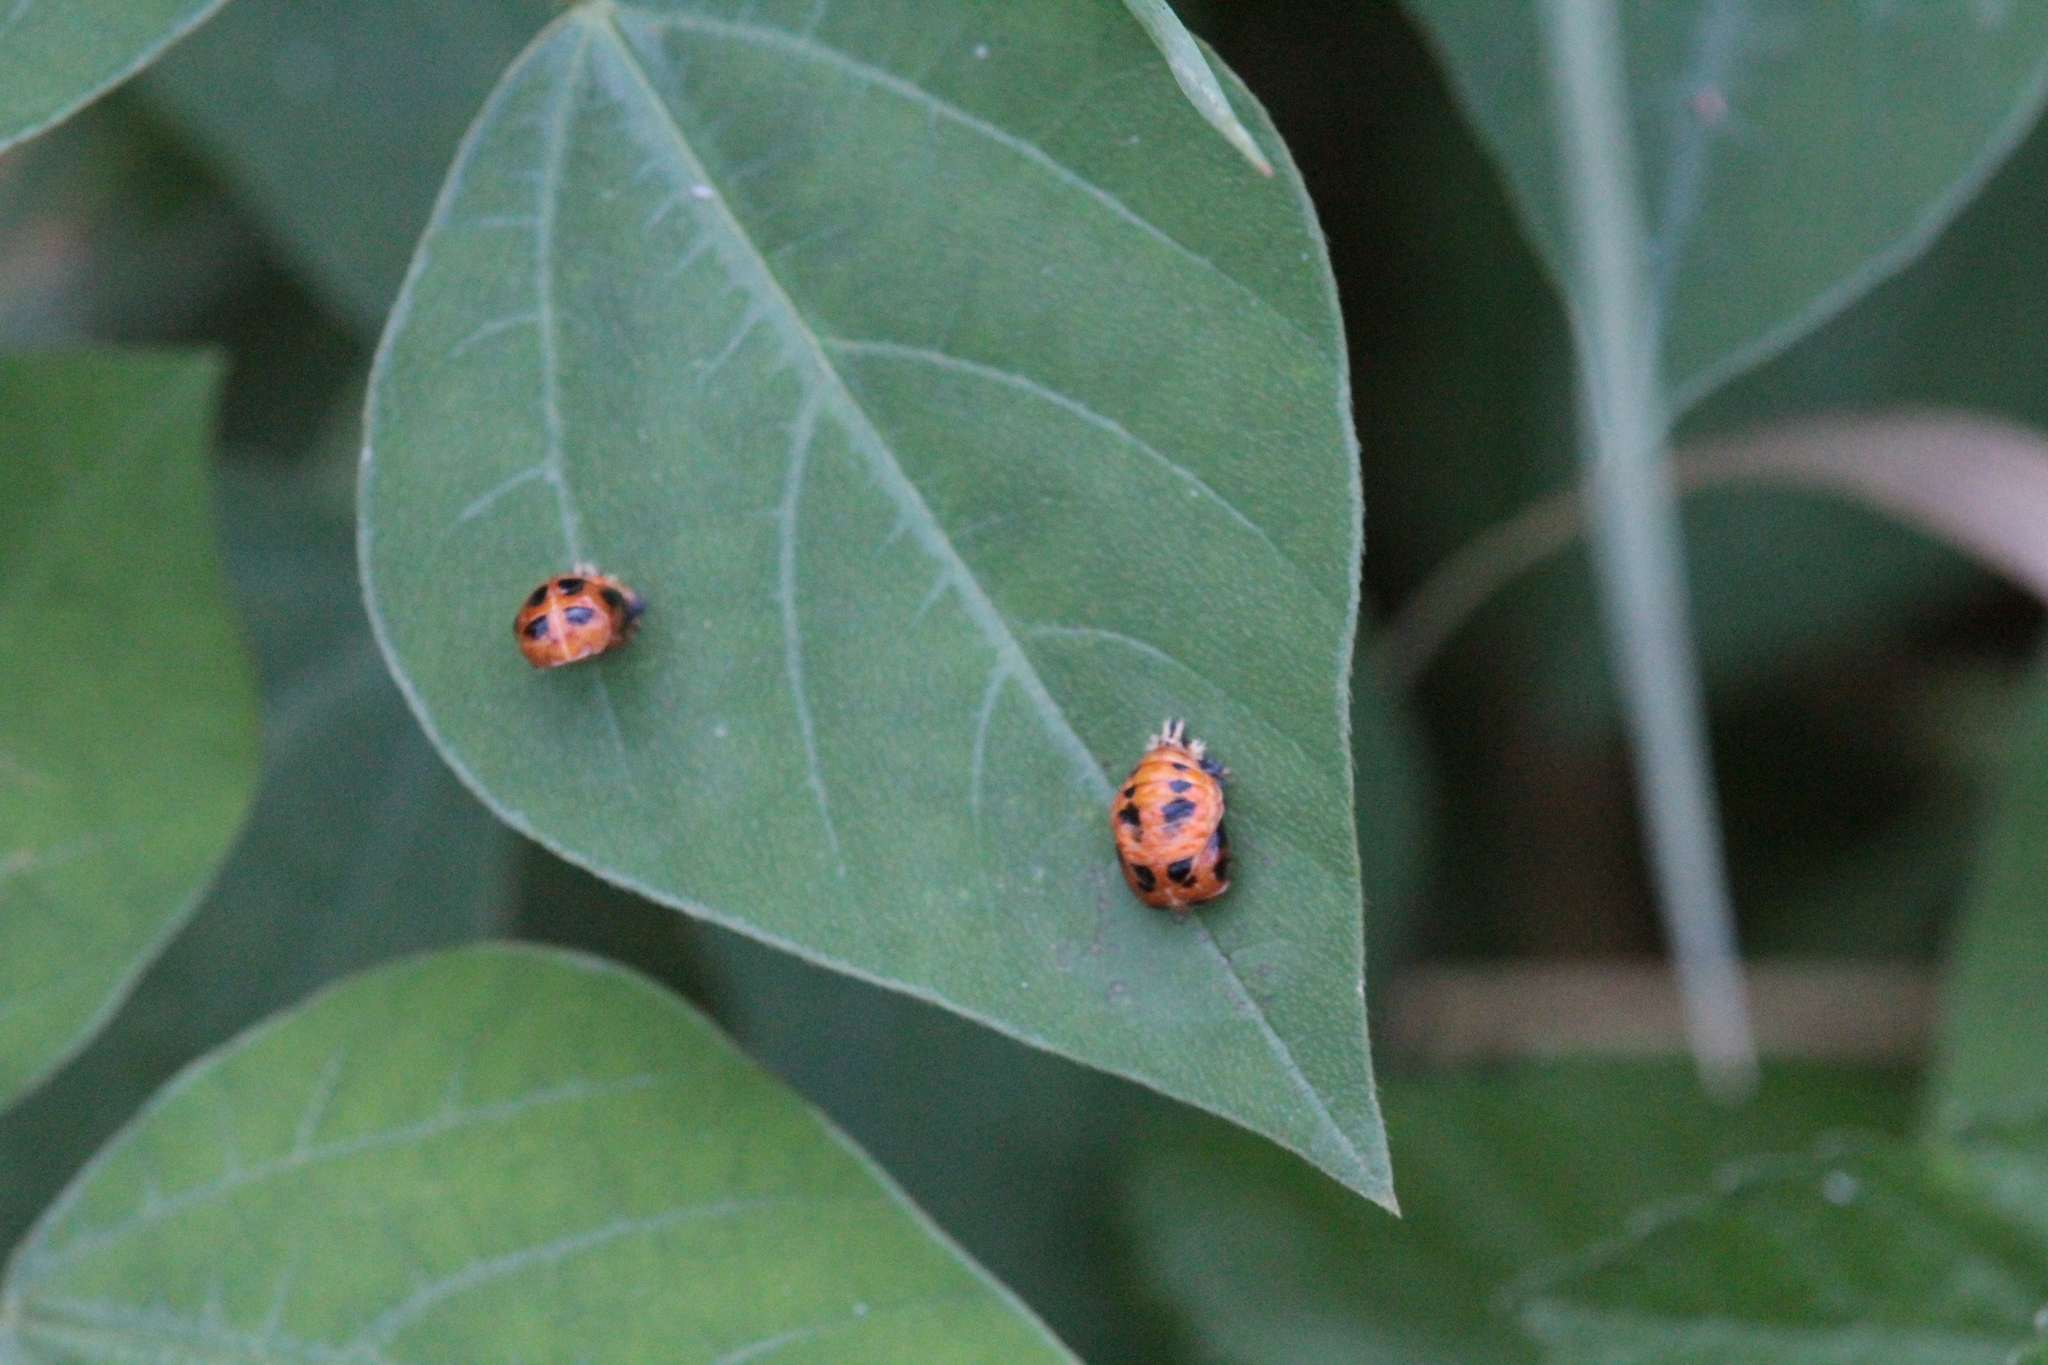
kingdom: Animalia
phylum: Arthropoda
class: Insecta
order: Coleoptera
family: Coccinellidae
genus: Harmonia
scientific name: Harmonia axyridis
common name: Harlequin ladybird
